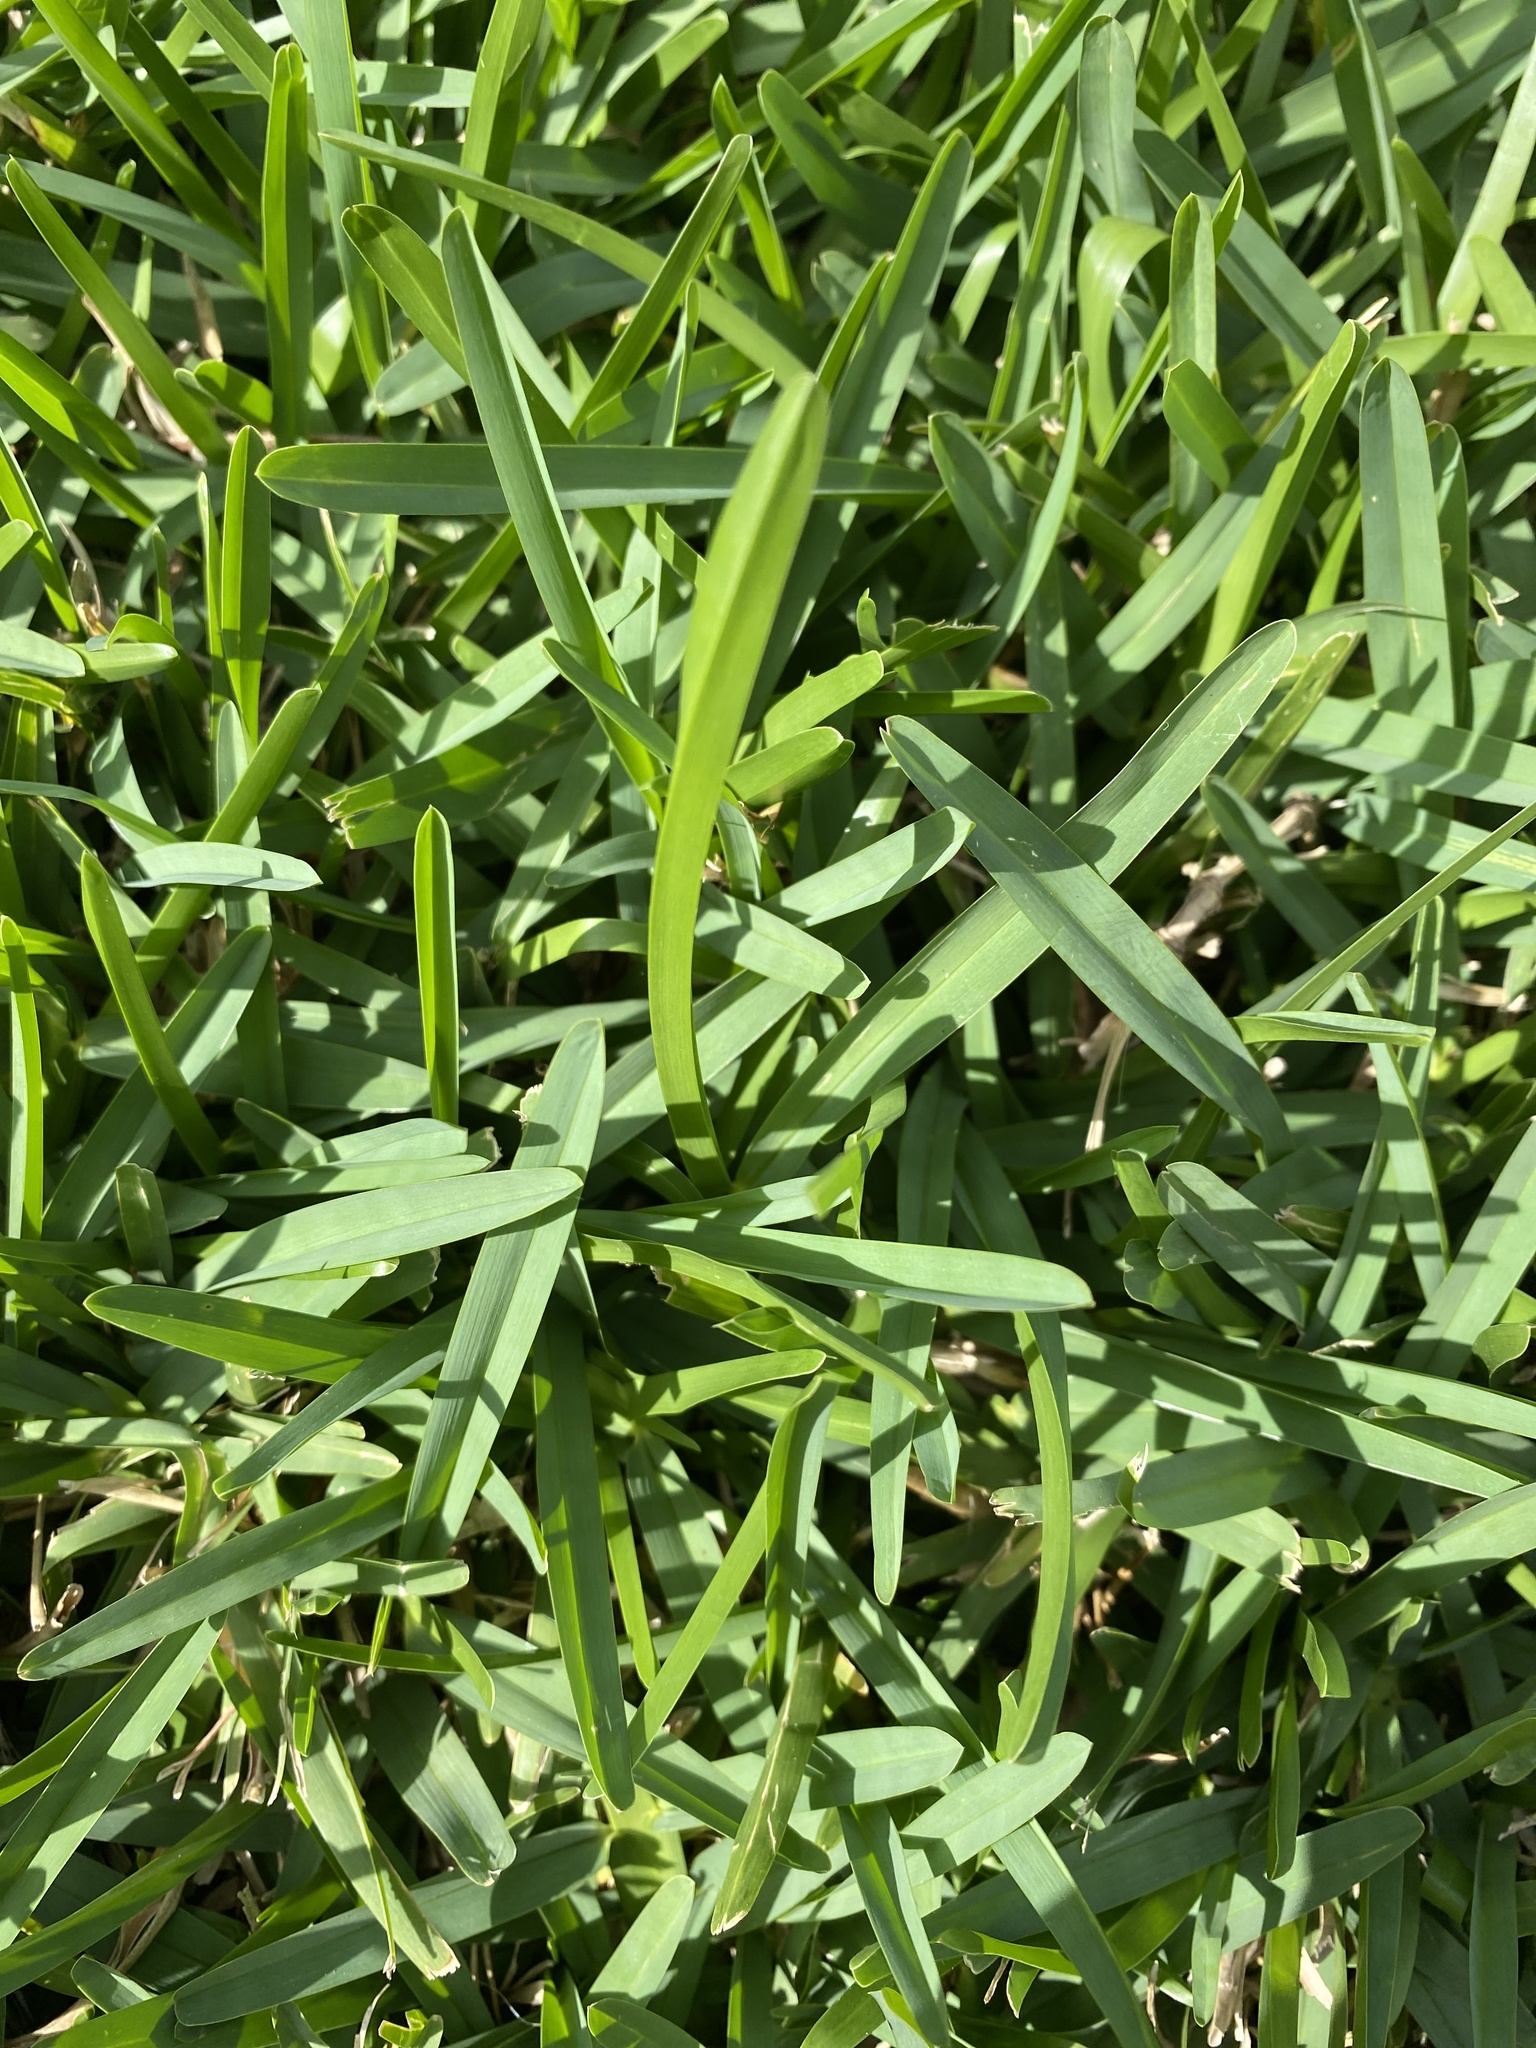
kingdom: Plantae
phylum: Tracheophyta
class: Liliopsida
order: Poales
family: Poaceae
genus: Stenotaphrum
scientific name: Stenotaphrum secundatum
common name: St. augustine grass
